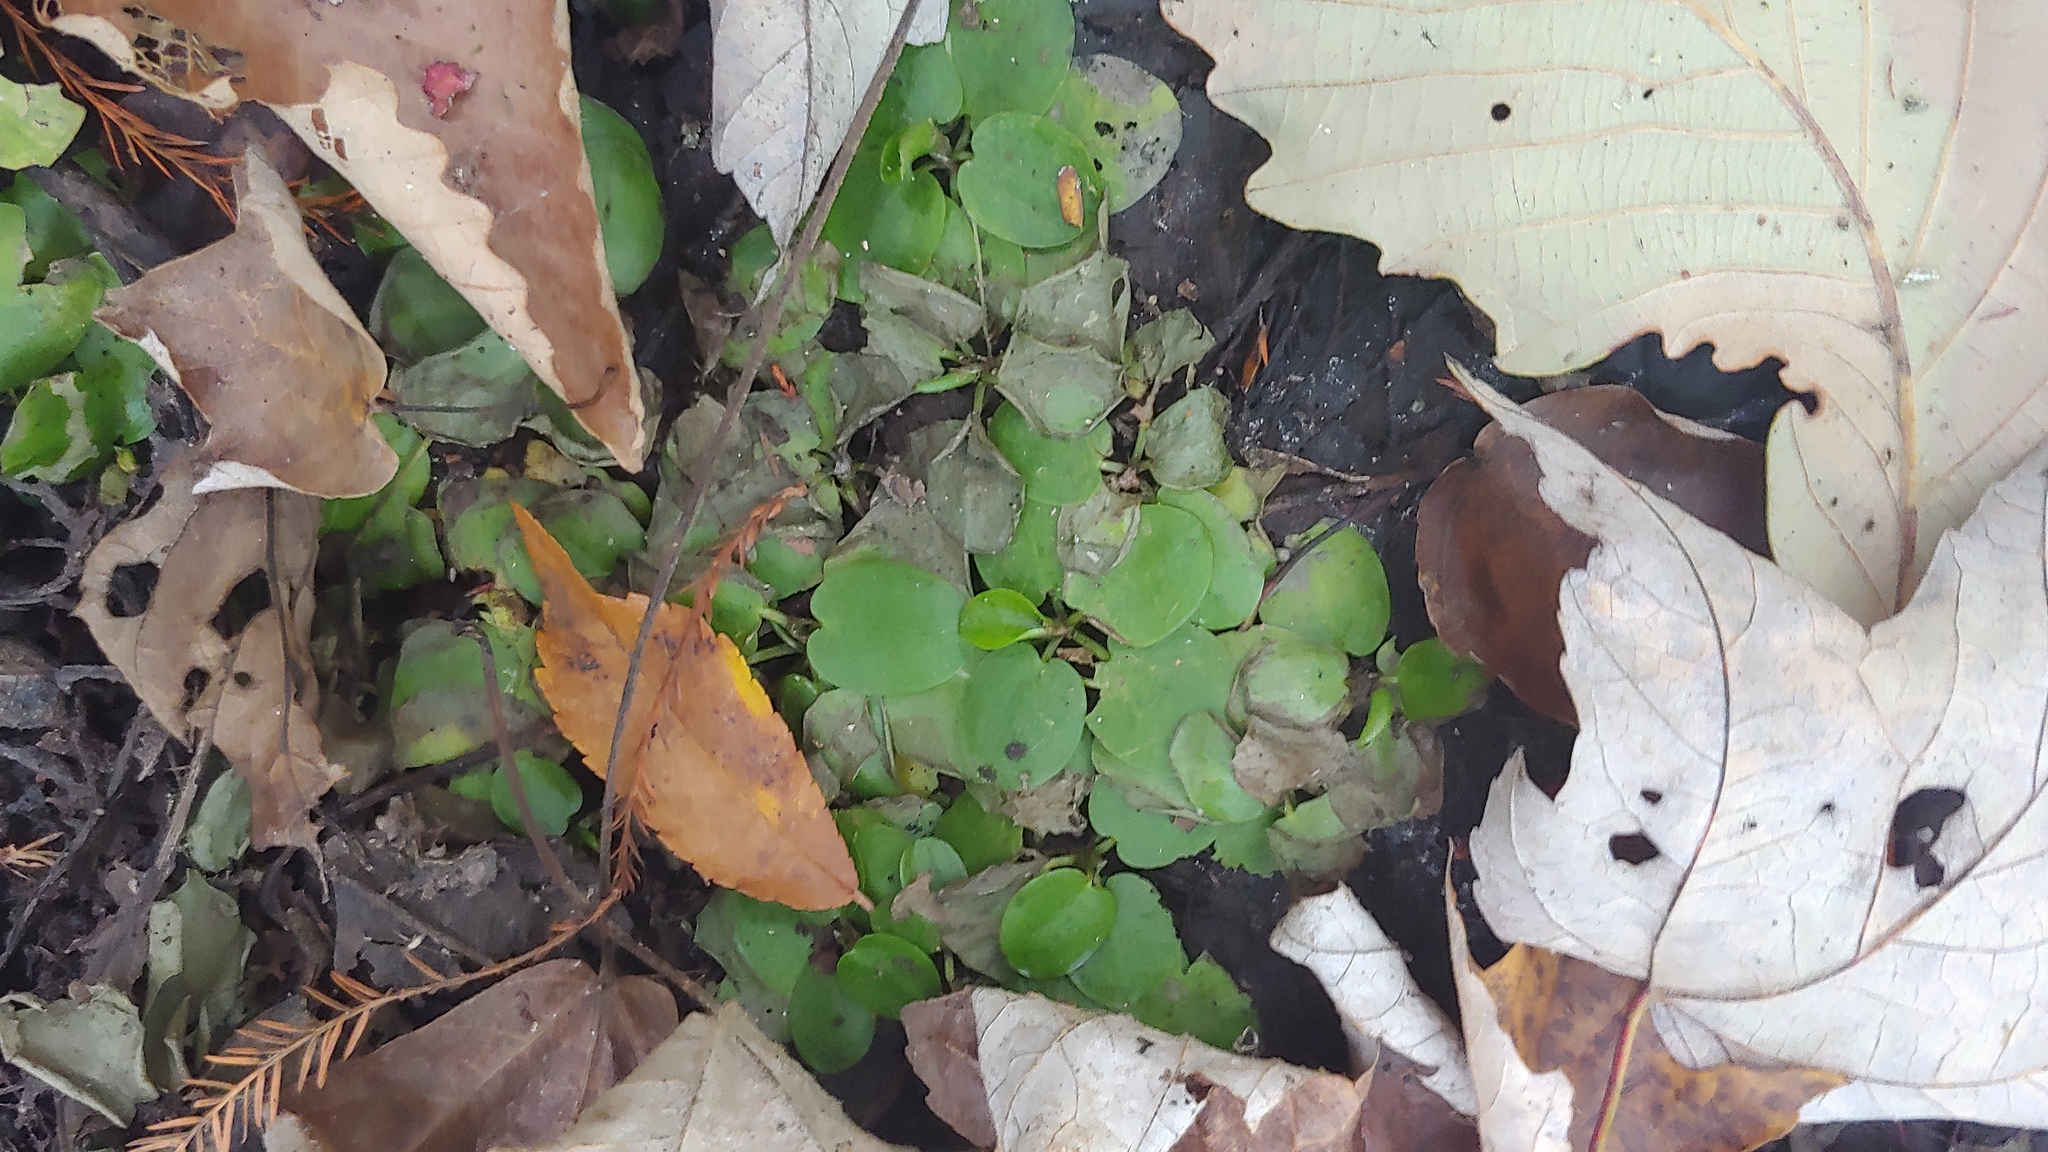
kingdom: Plantae
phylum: Tracheophyta
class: Liliopsida
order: Alismatales
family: Hydrocharitaceae
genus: Hydrocharis
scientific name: Hydrocharis spongia
